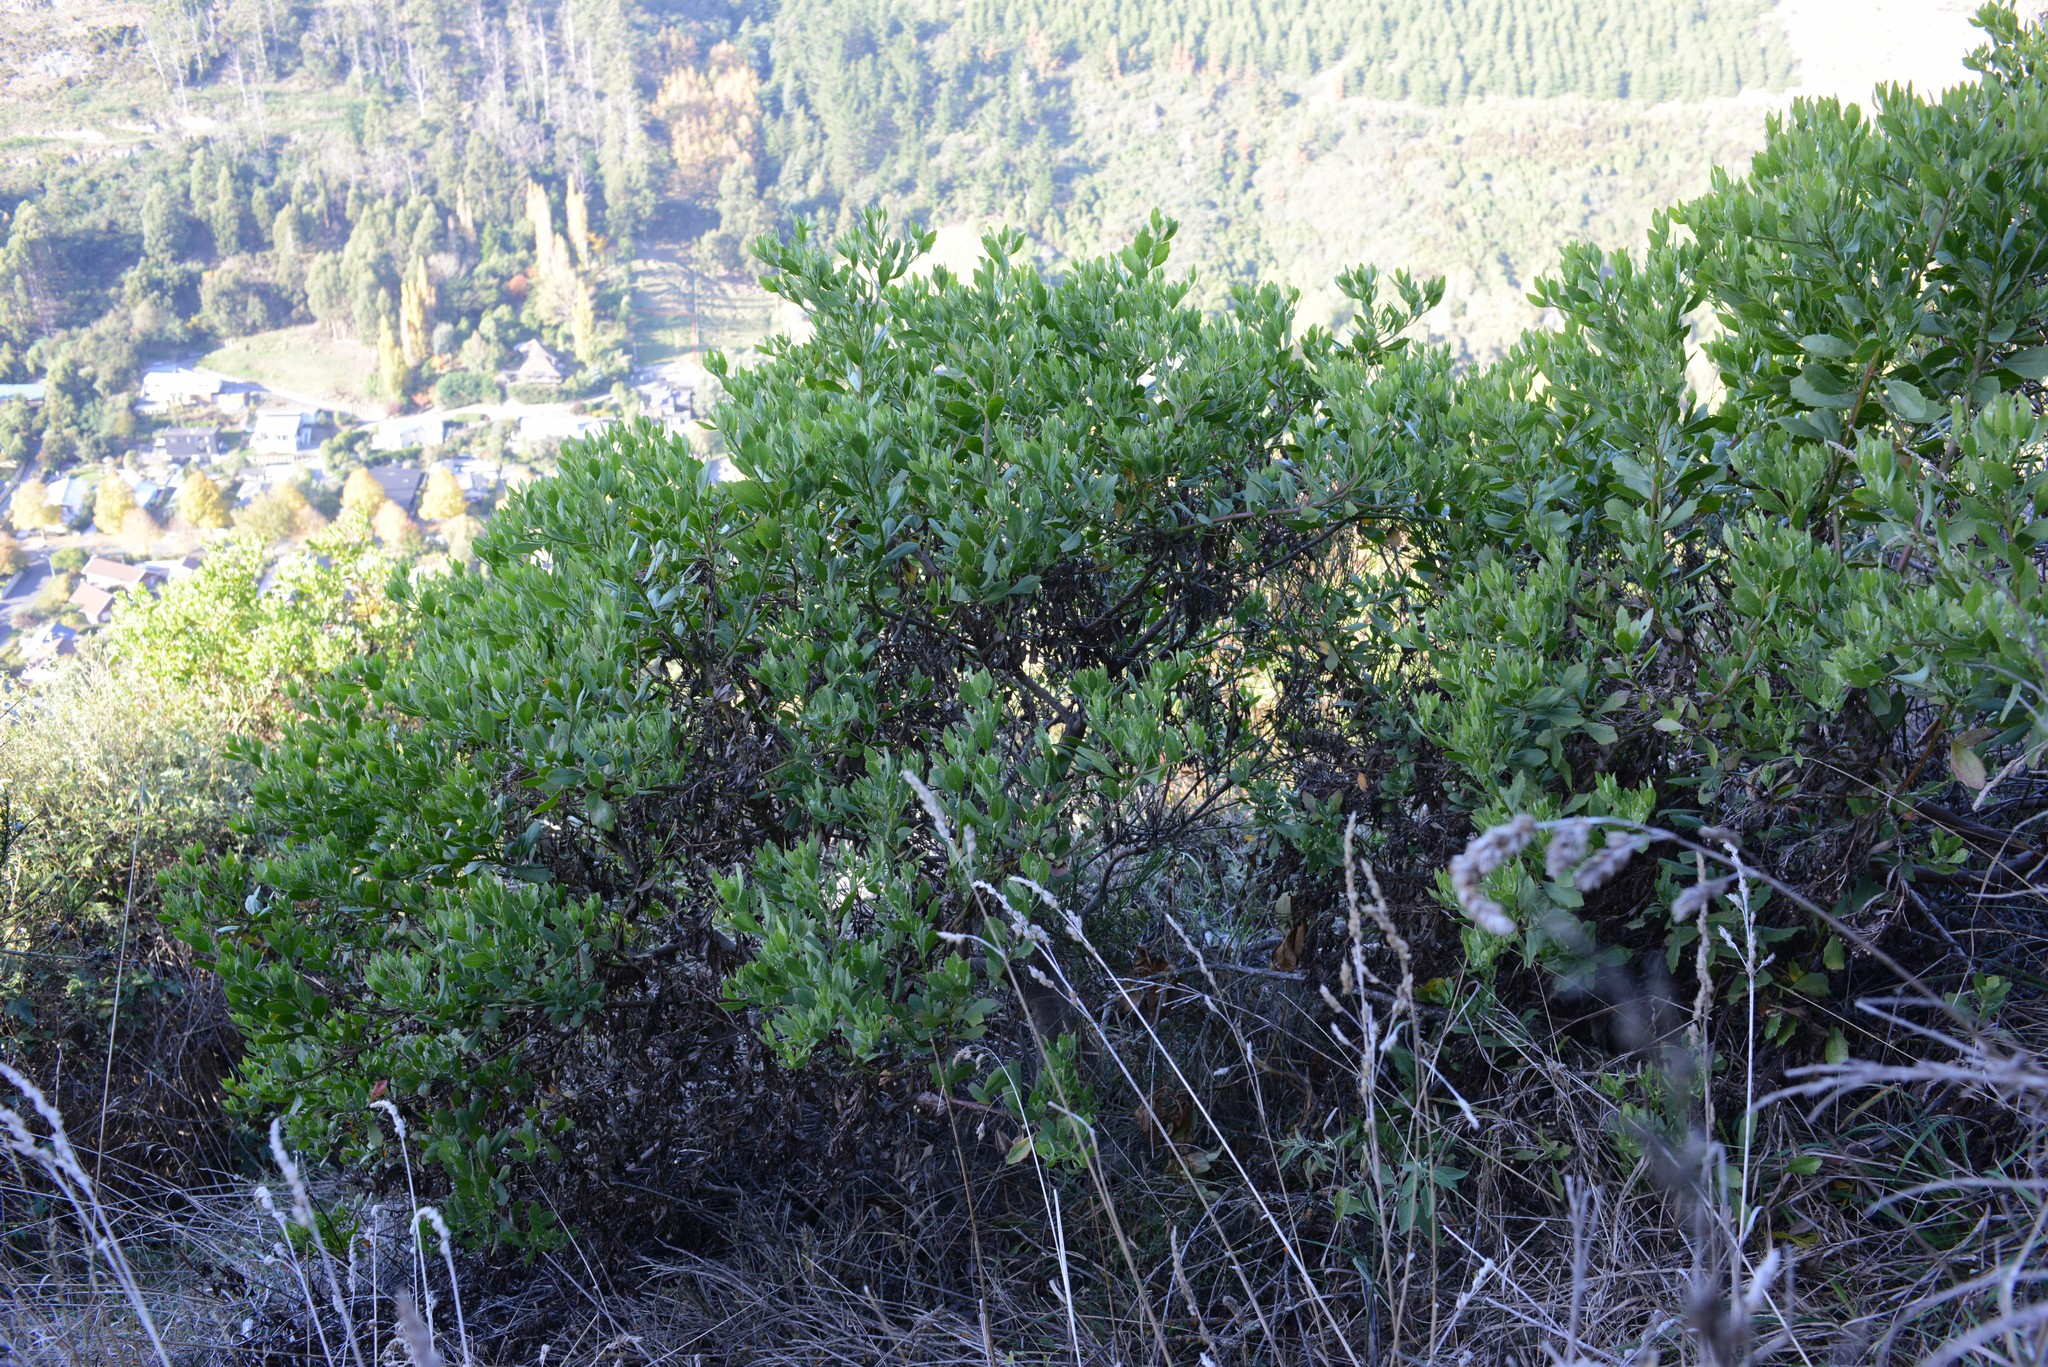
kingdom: Plantae
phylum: Tracheophyta
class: Magnoliopsida
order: Asterales
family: Asteraceae
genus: Osteospermum
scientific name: Osteospermum moniliferum
